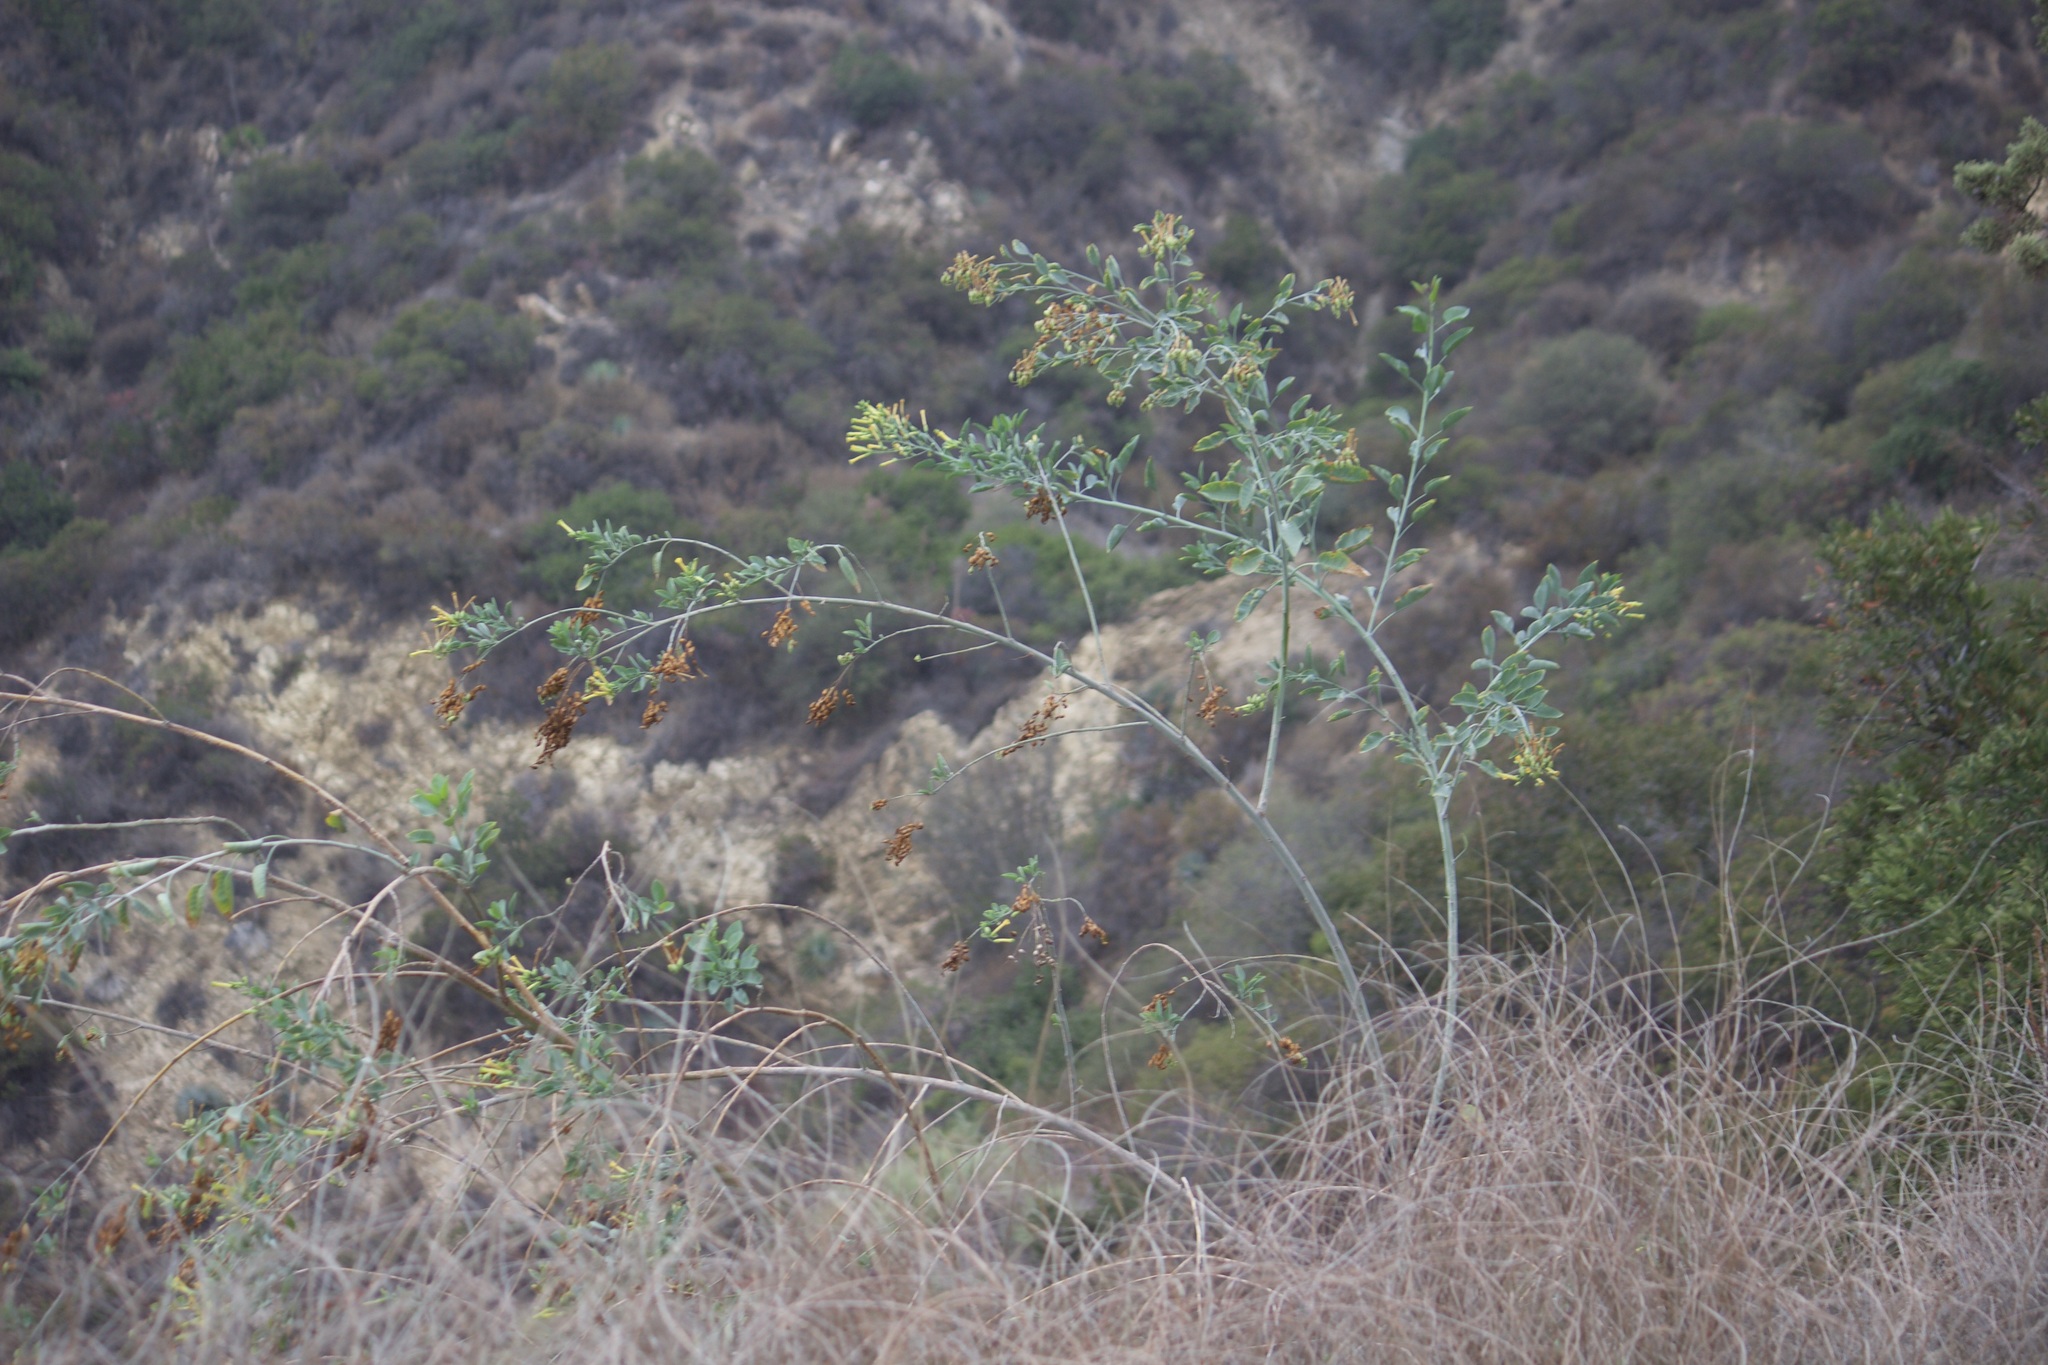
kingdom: Plantae
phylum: Tracheophyta
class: Magnoliopsida
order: Solanales
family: Solanaceae
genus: Nicotiana
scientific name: Nicotiana glauca
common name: Tree tobacco
